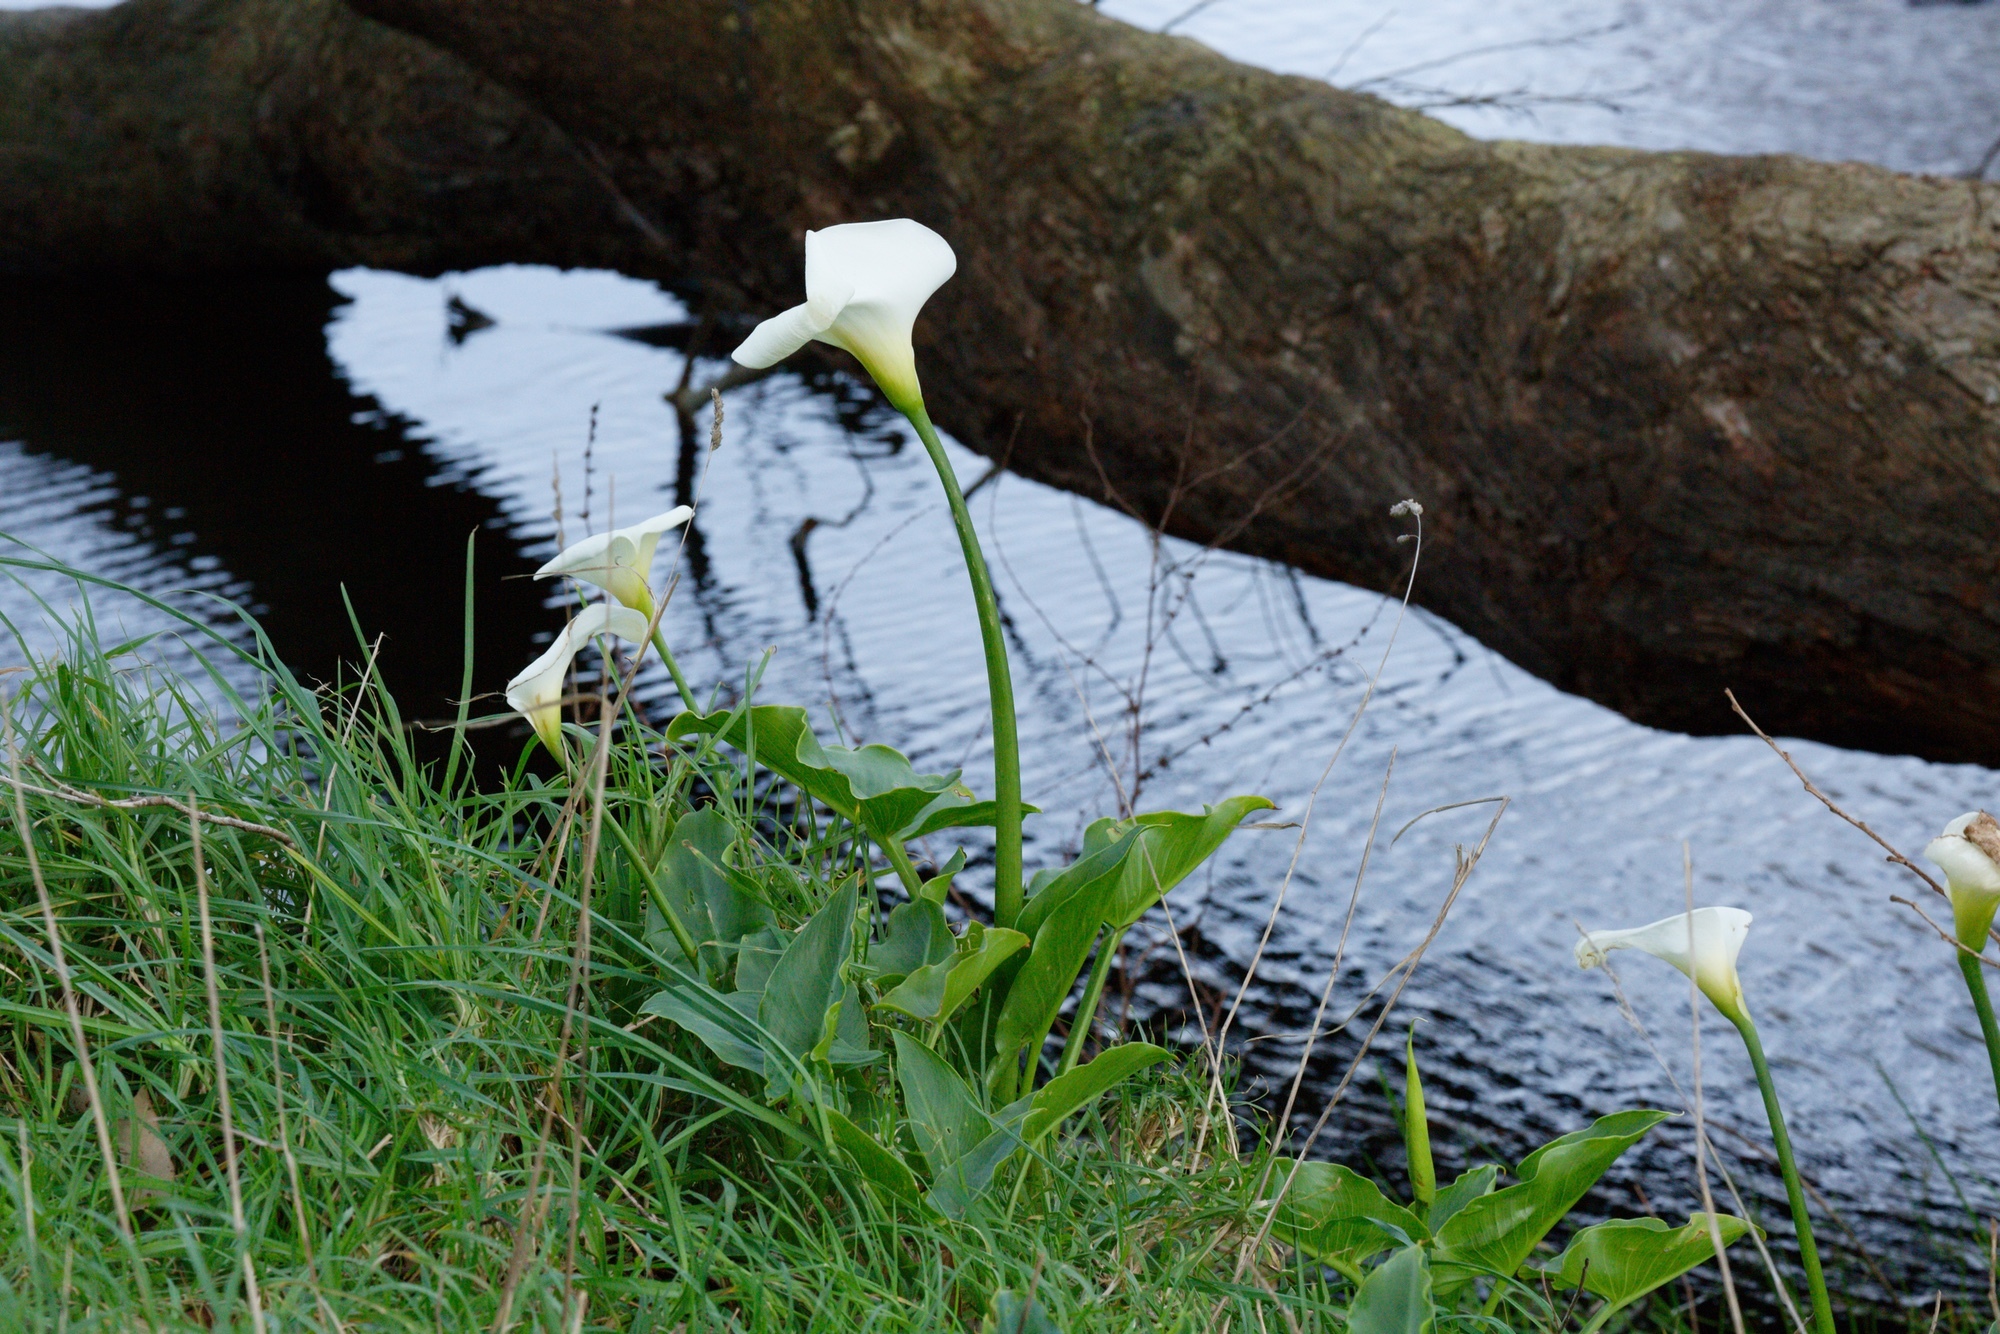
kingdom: Plantae
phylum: Tracheophyta
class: Liliopsida
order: Alismatales
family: Araceae
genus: Zantedeschia
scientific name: Zantedeschia aethiopica
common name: Altar-lily
